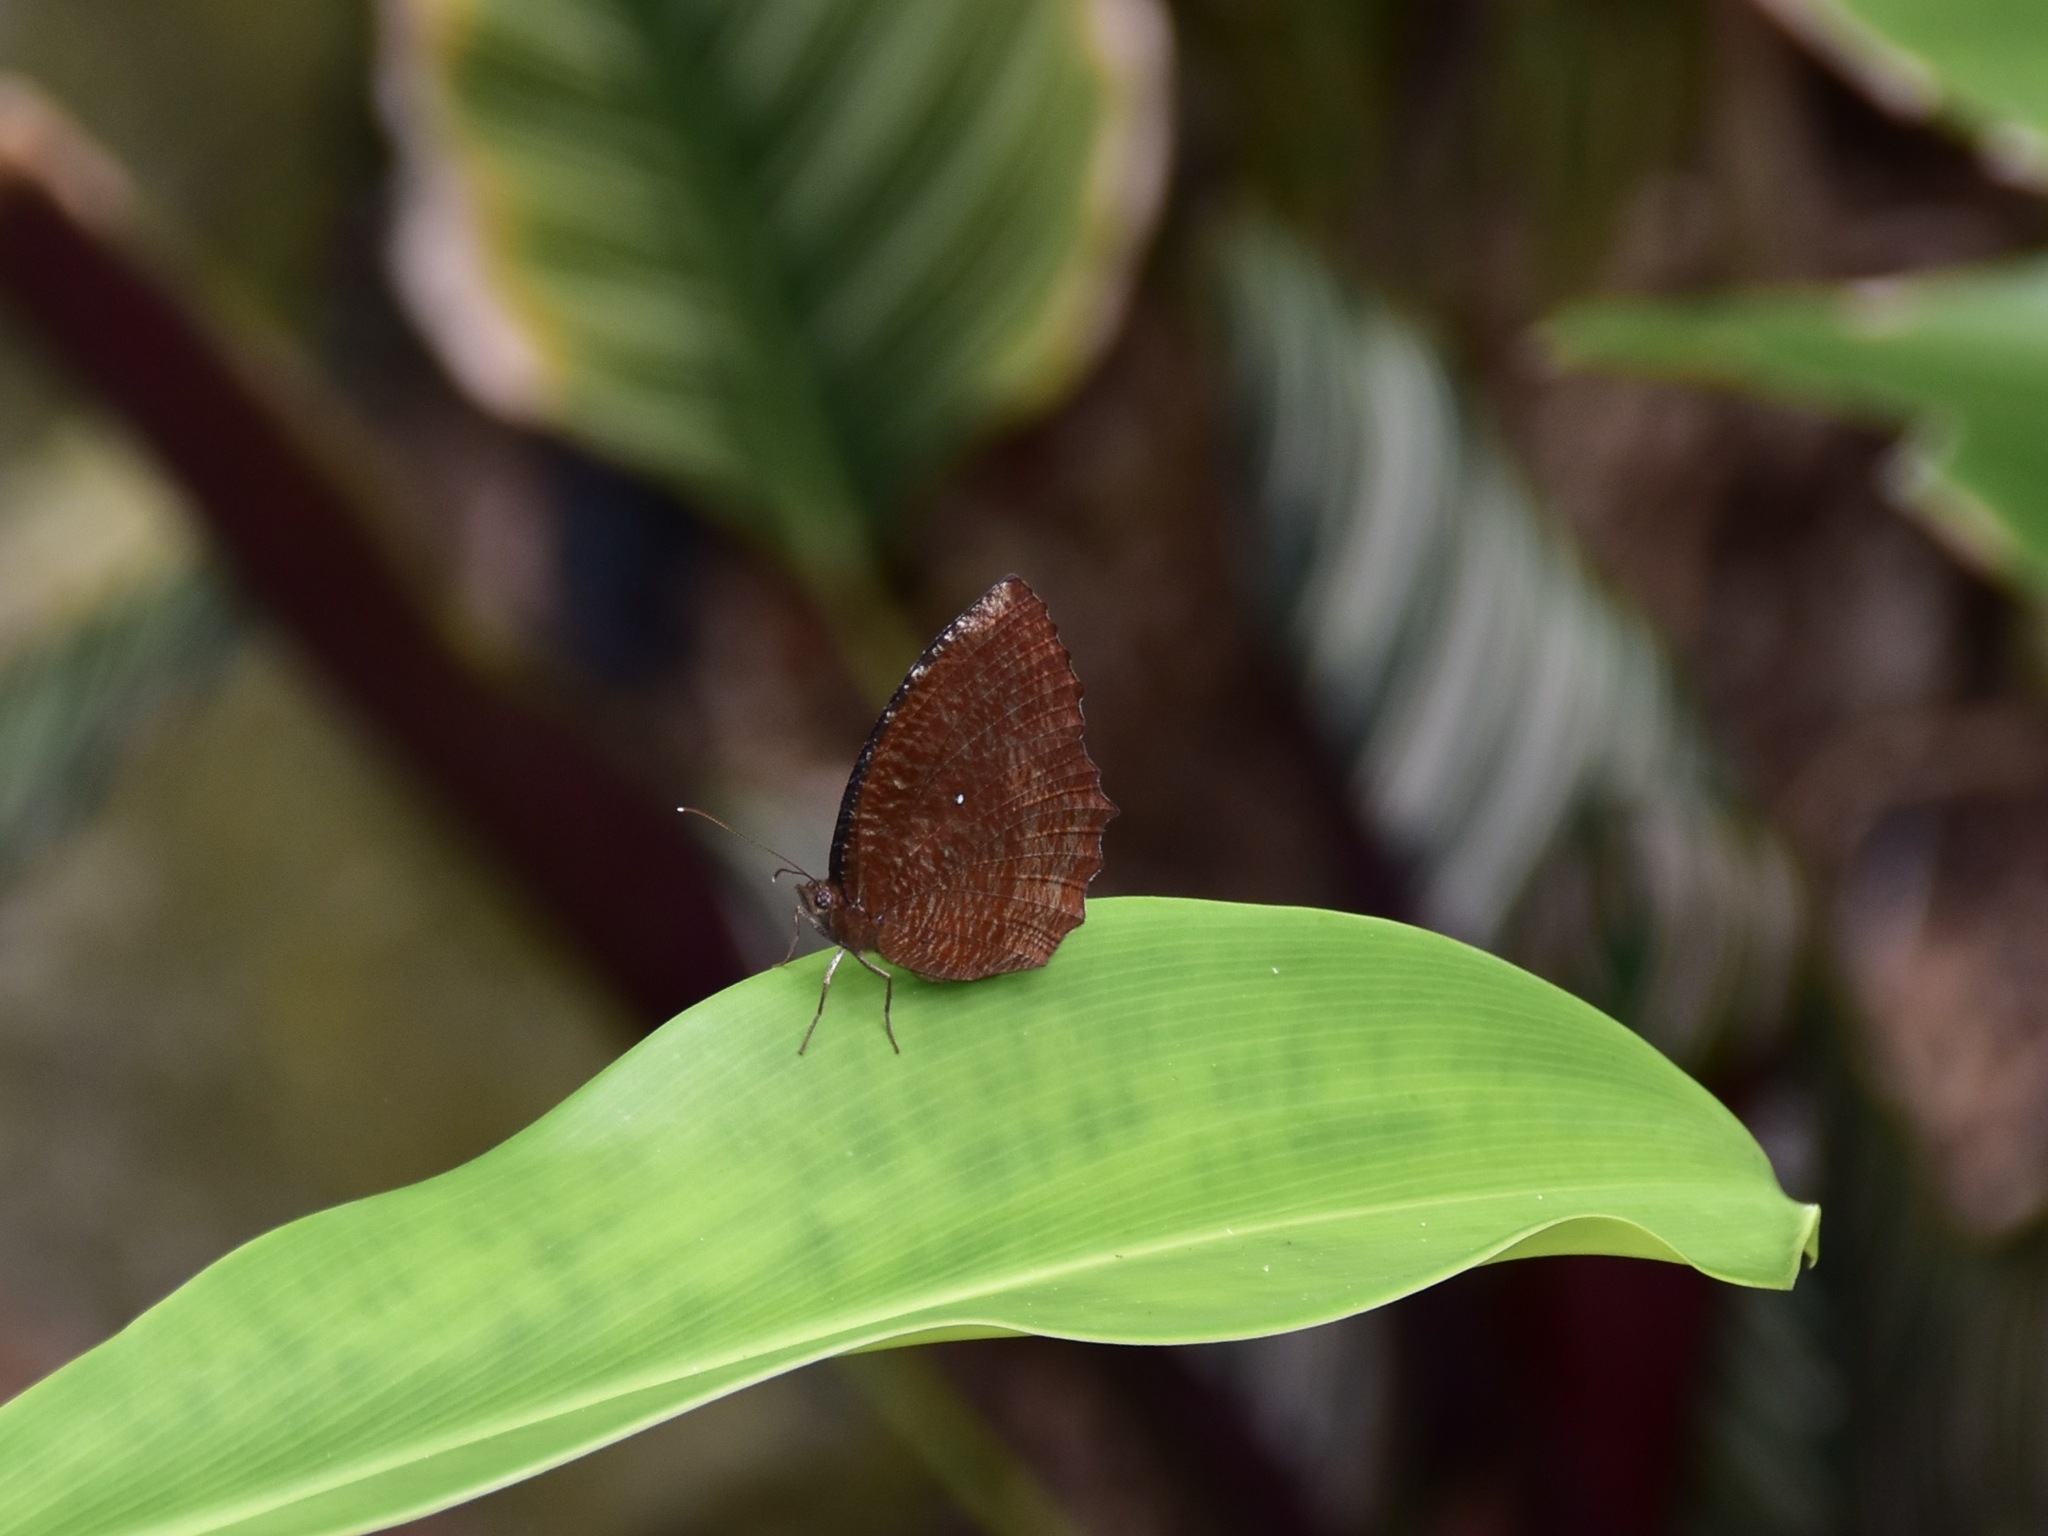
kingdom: Animalia
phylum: Arthropoda
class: Insecta
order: Lepidoptera
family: Nymphalidae
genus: Elymnias
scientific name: Elymnias hypermnestra
